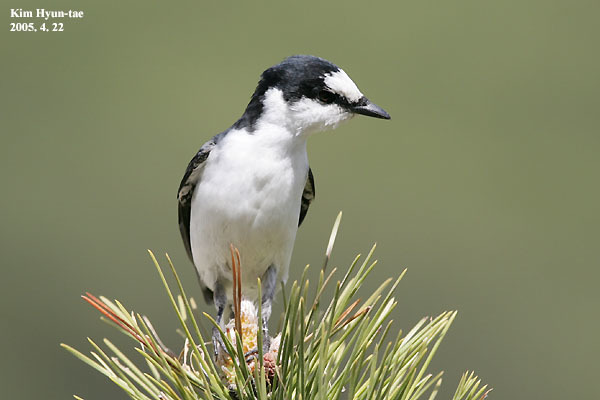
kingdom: Animalia
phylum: Chordata
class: Aves
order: Passeriformes
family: Campephagidae
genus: Pericrocotus
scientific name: Pericrocotus divaricatus
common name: Ashy minivet
